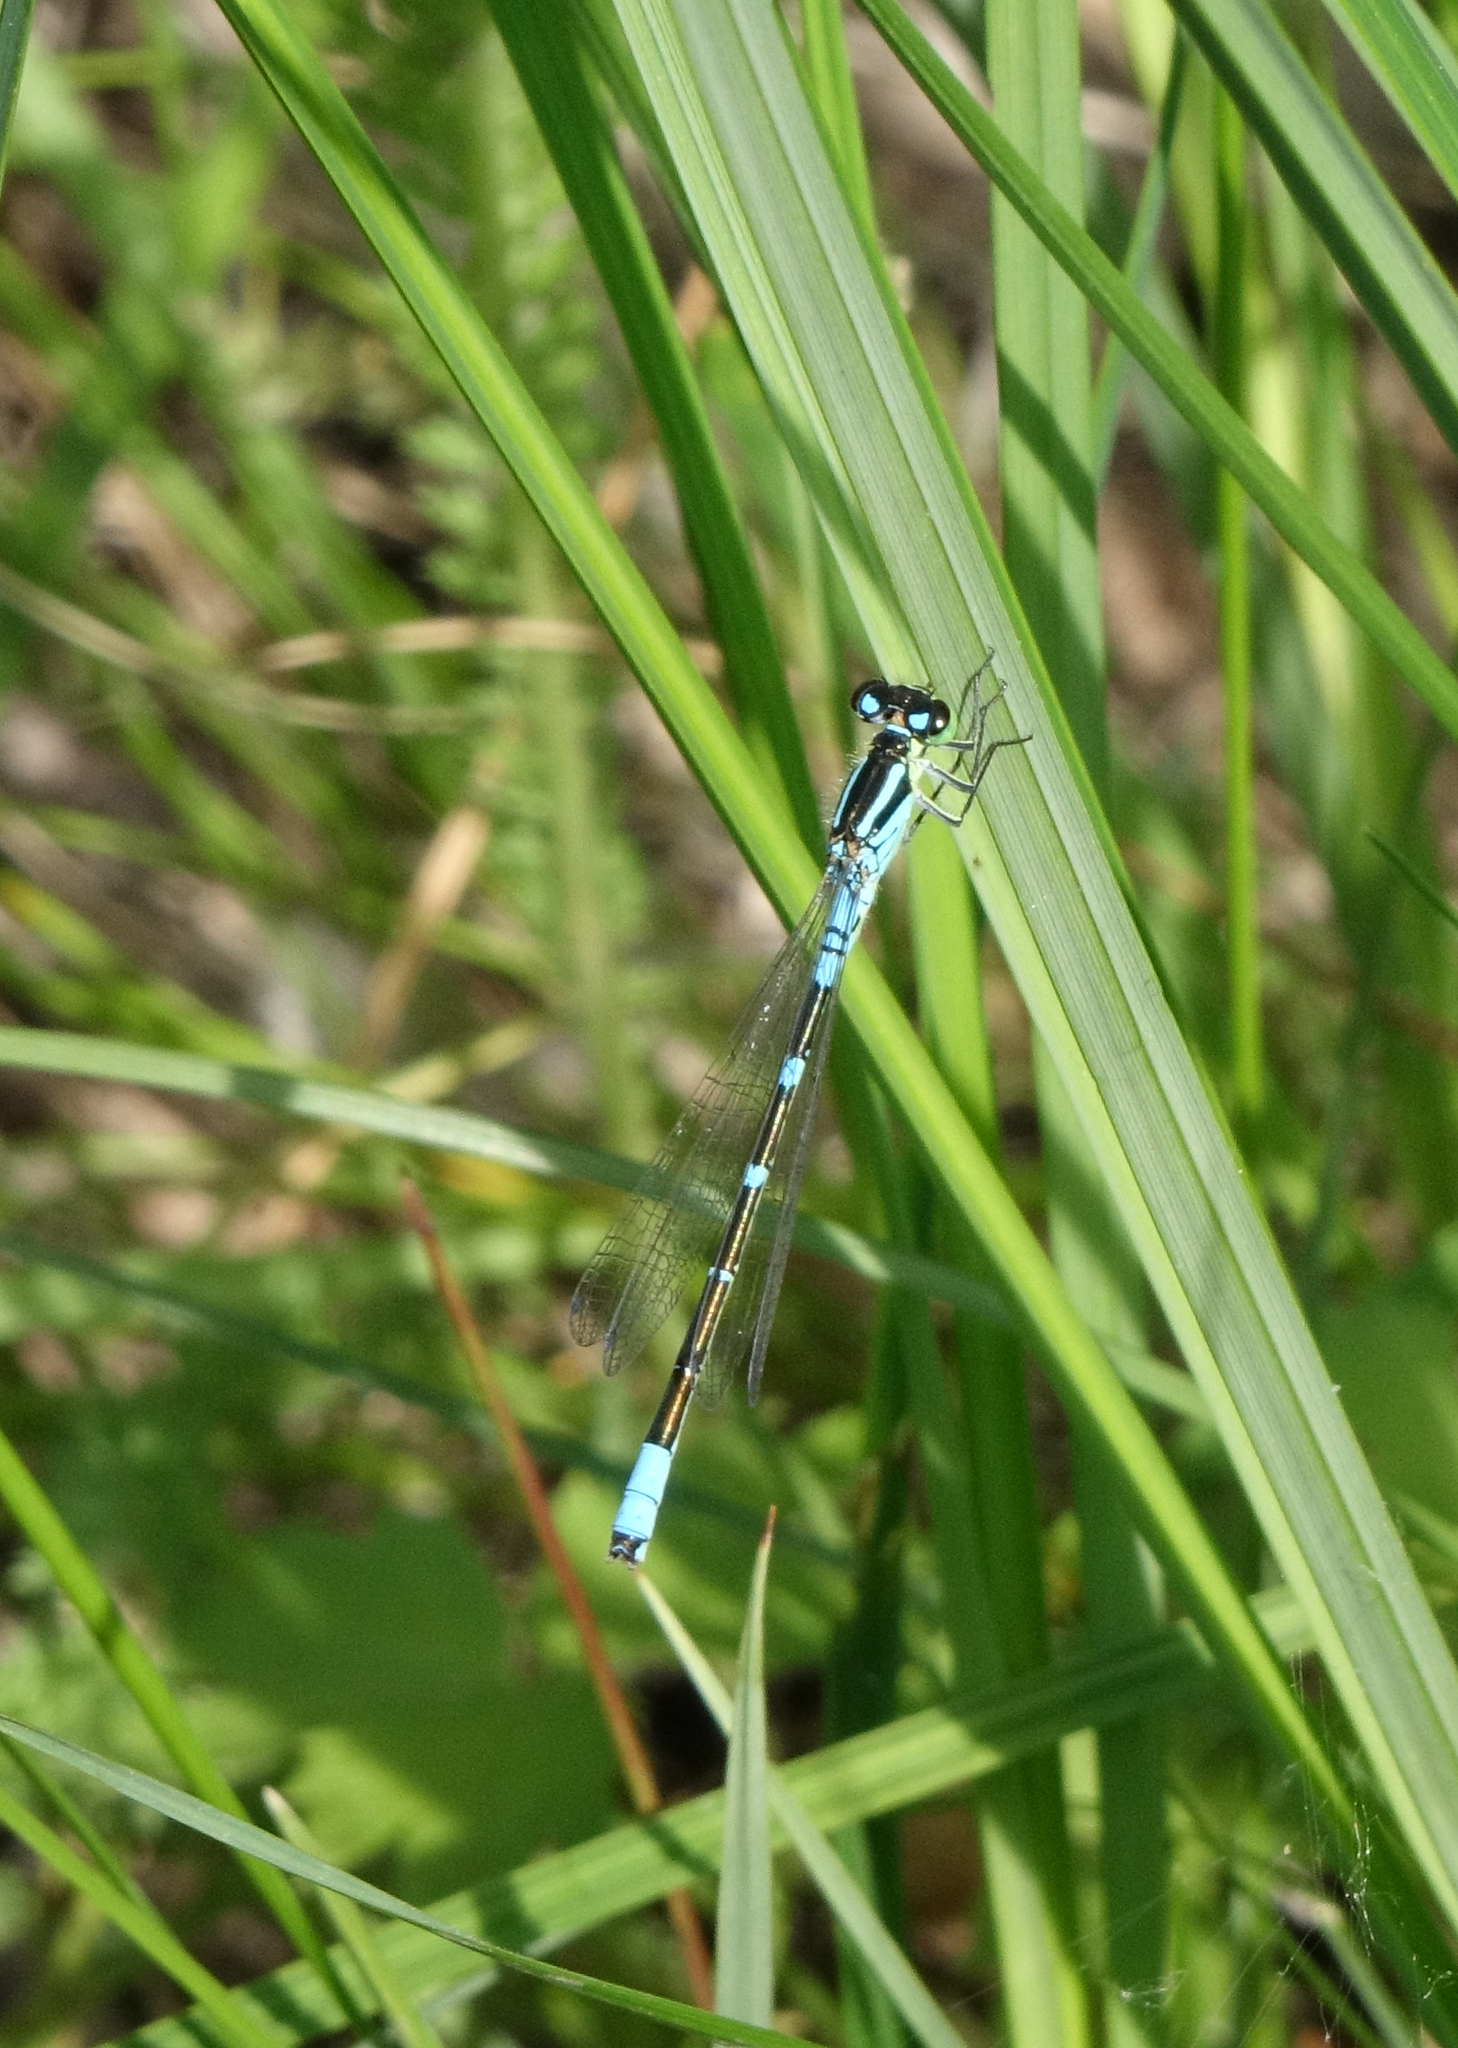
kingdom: Animalia
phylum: Arthropoda
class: Insecta
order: Odonata
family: Coenagrionidae
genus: Coenagrion
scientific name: Coenagrion lunulatum
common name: Irish damselfly
